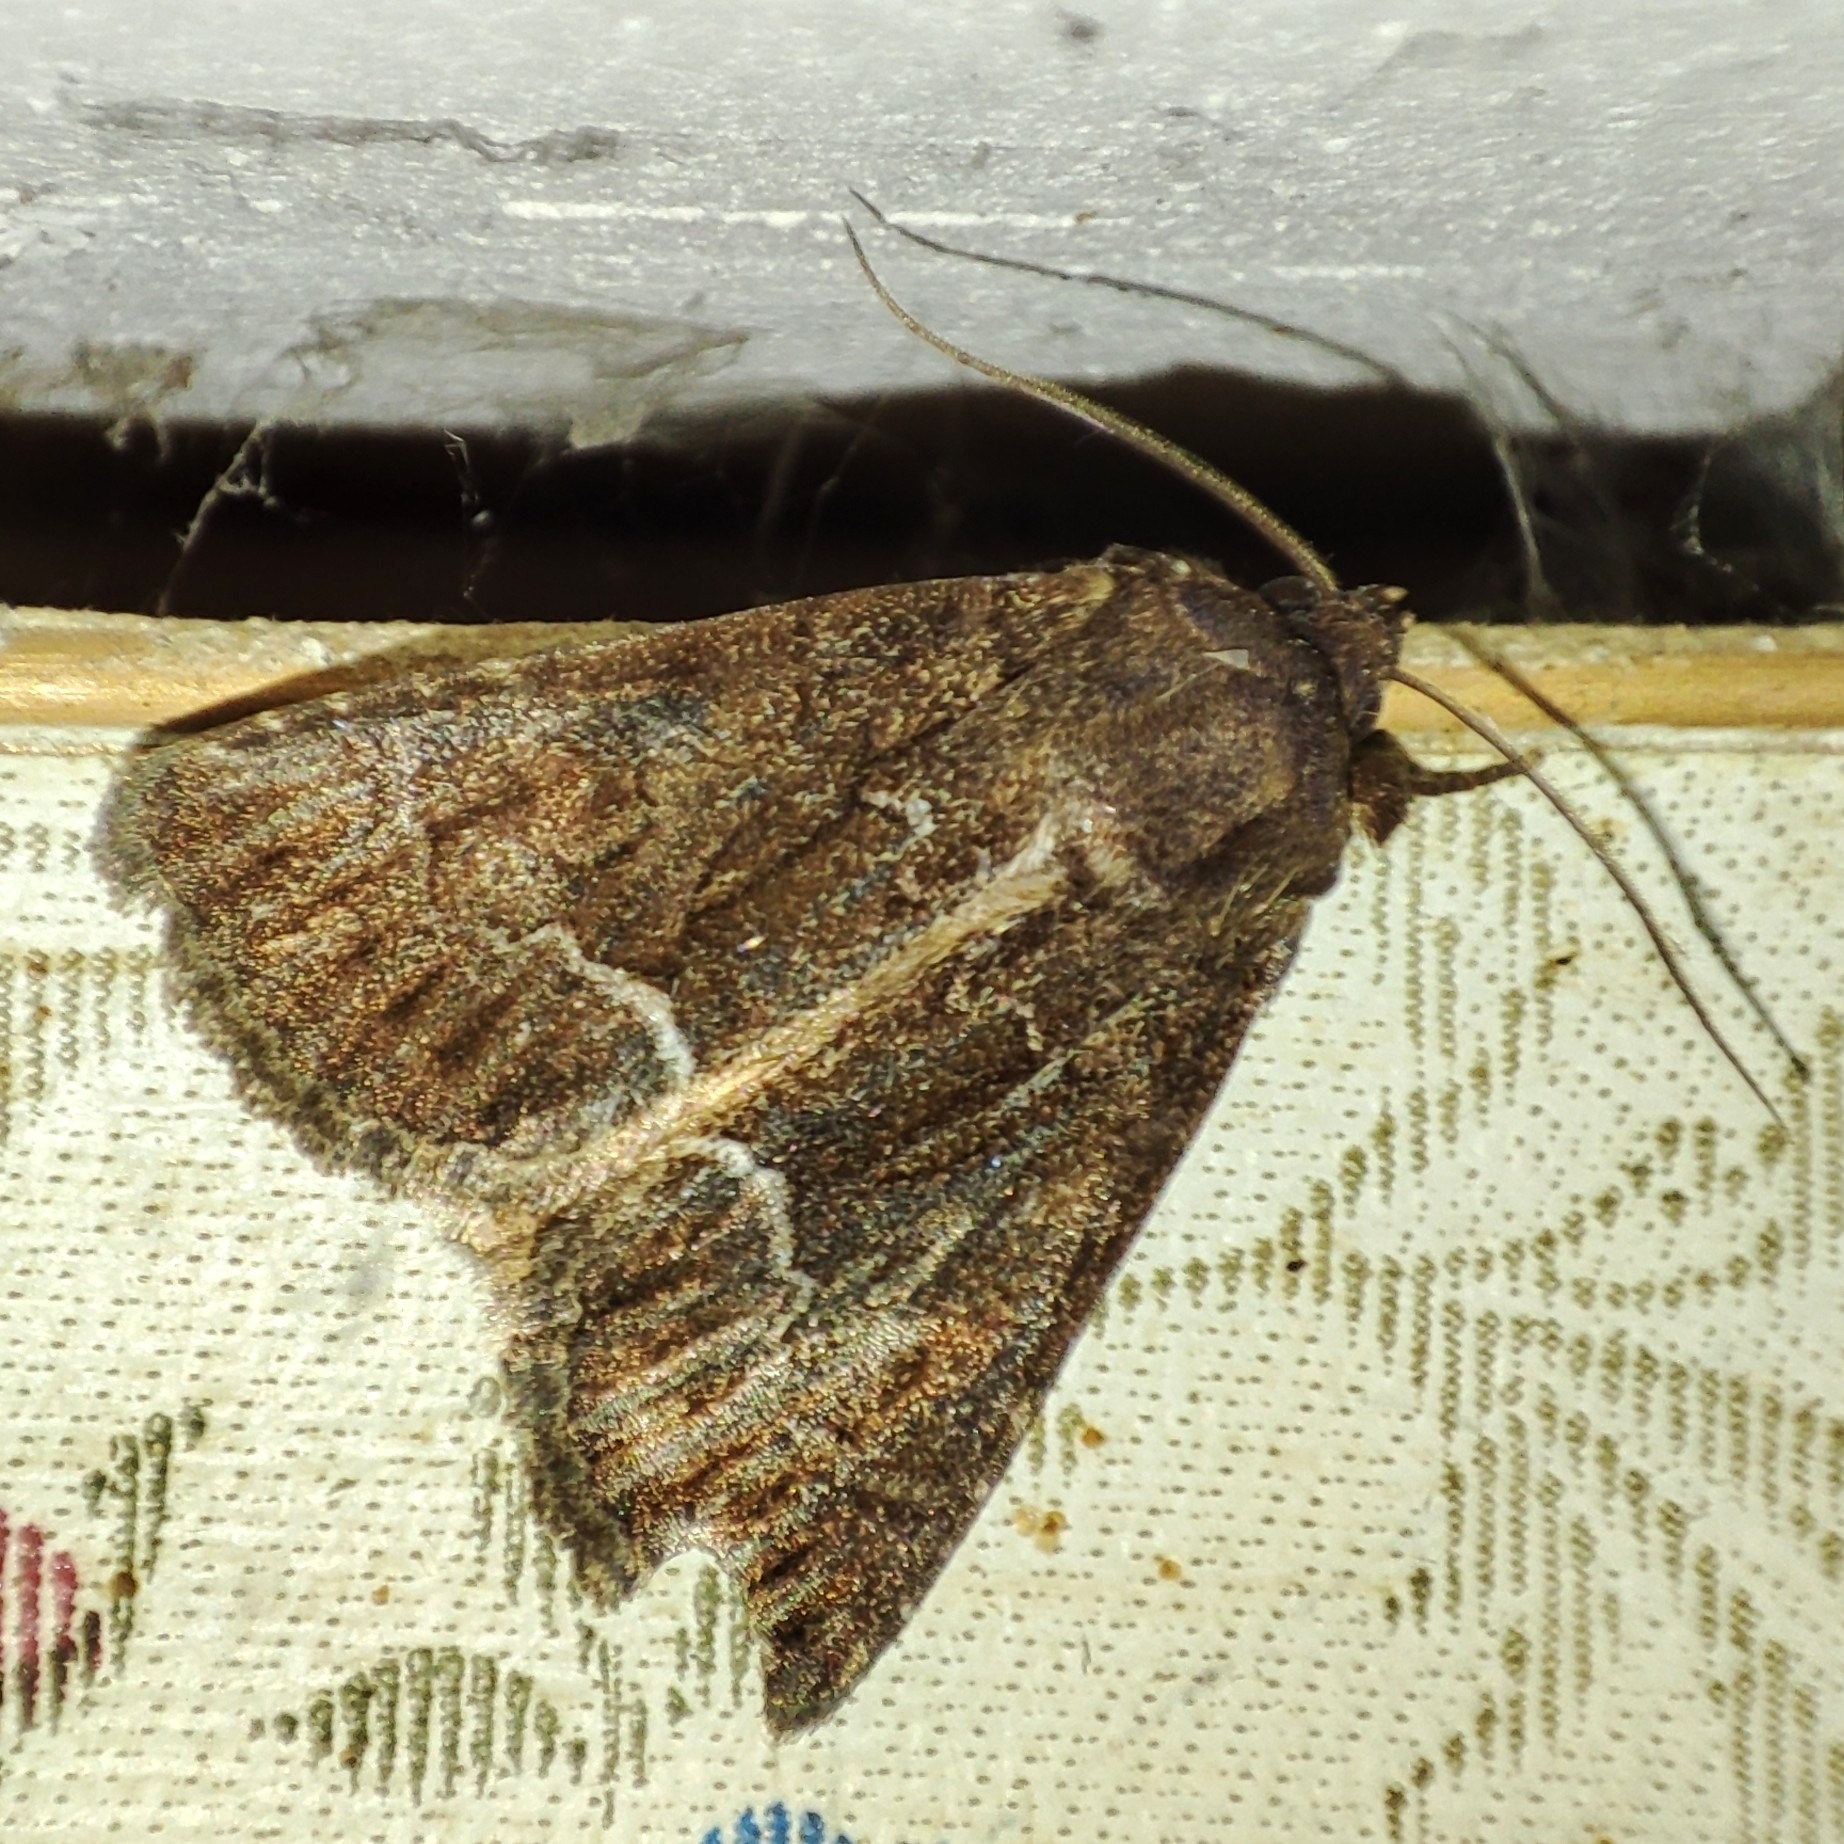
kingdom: Animalia
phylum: Arthropoda
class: Insecta
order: Lepidoptera
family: Noctuidae
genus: Thalpophila
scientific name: Thalpophila matura
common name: Straw underwing
